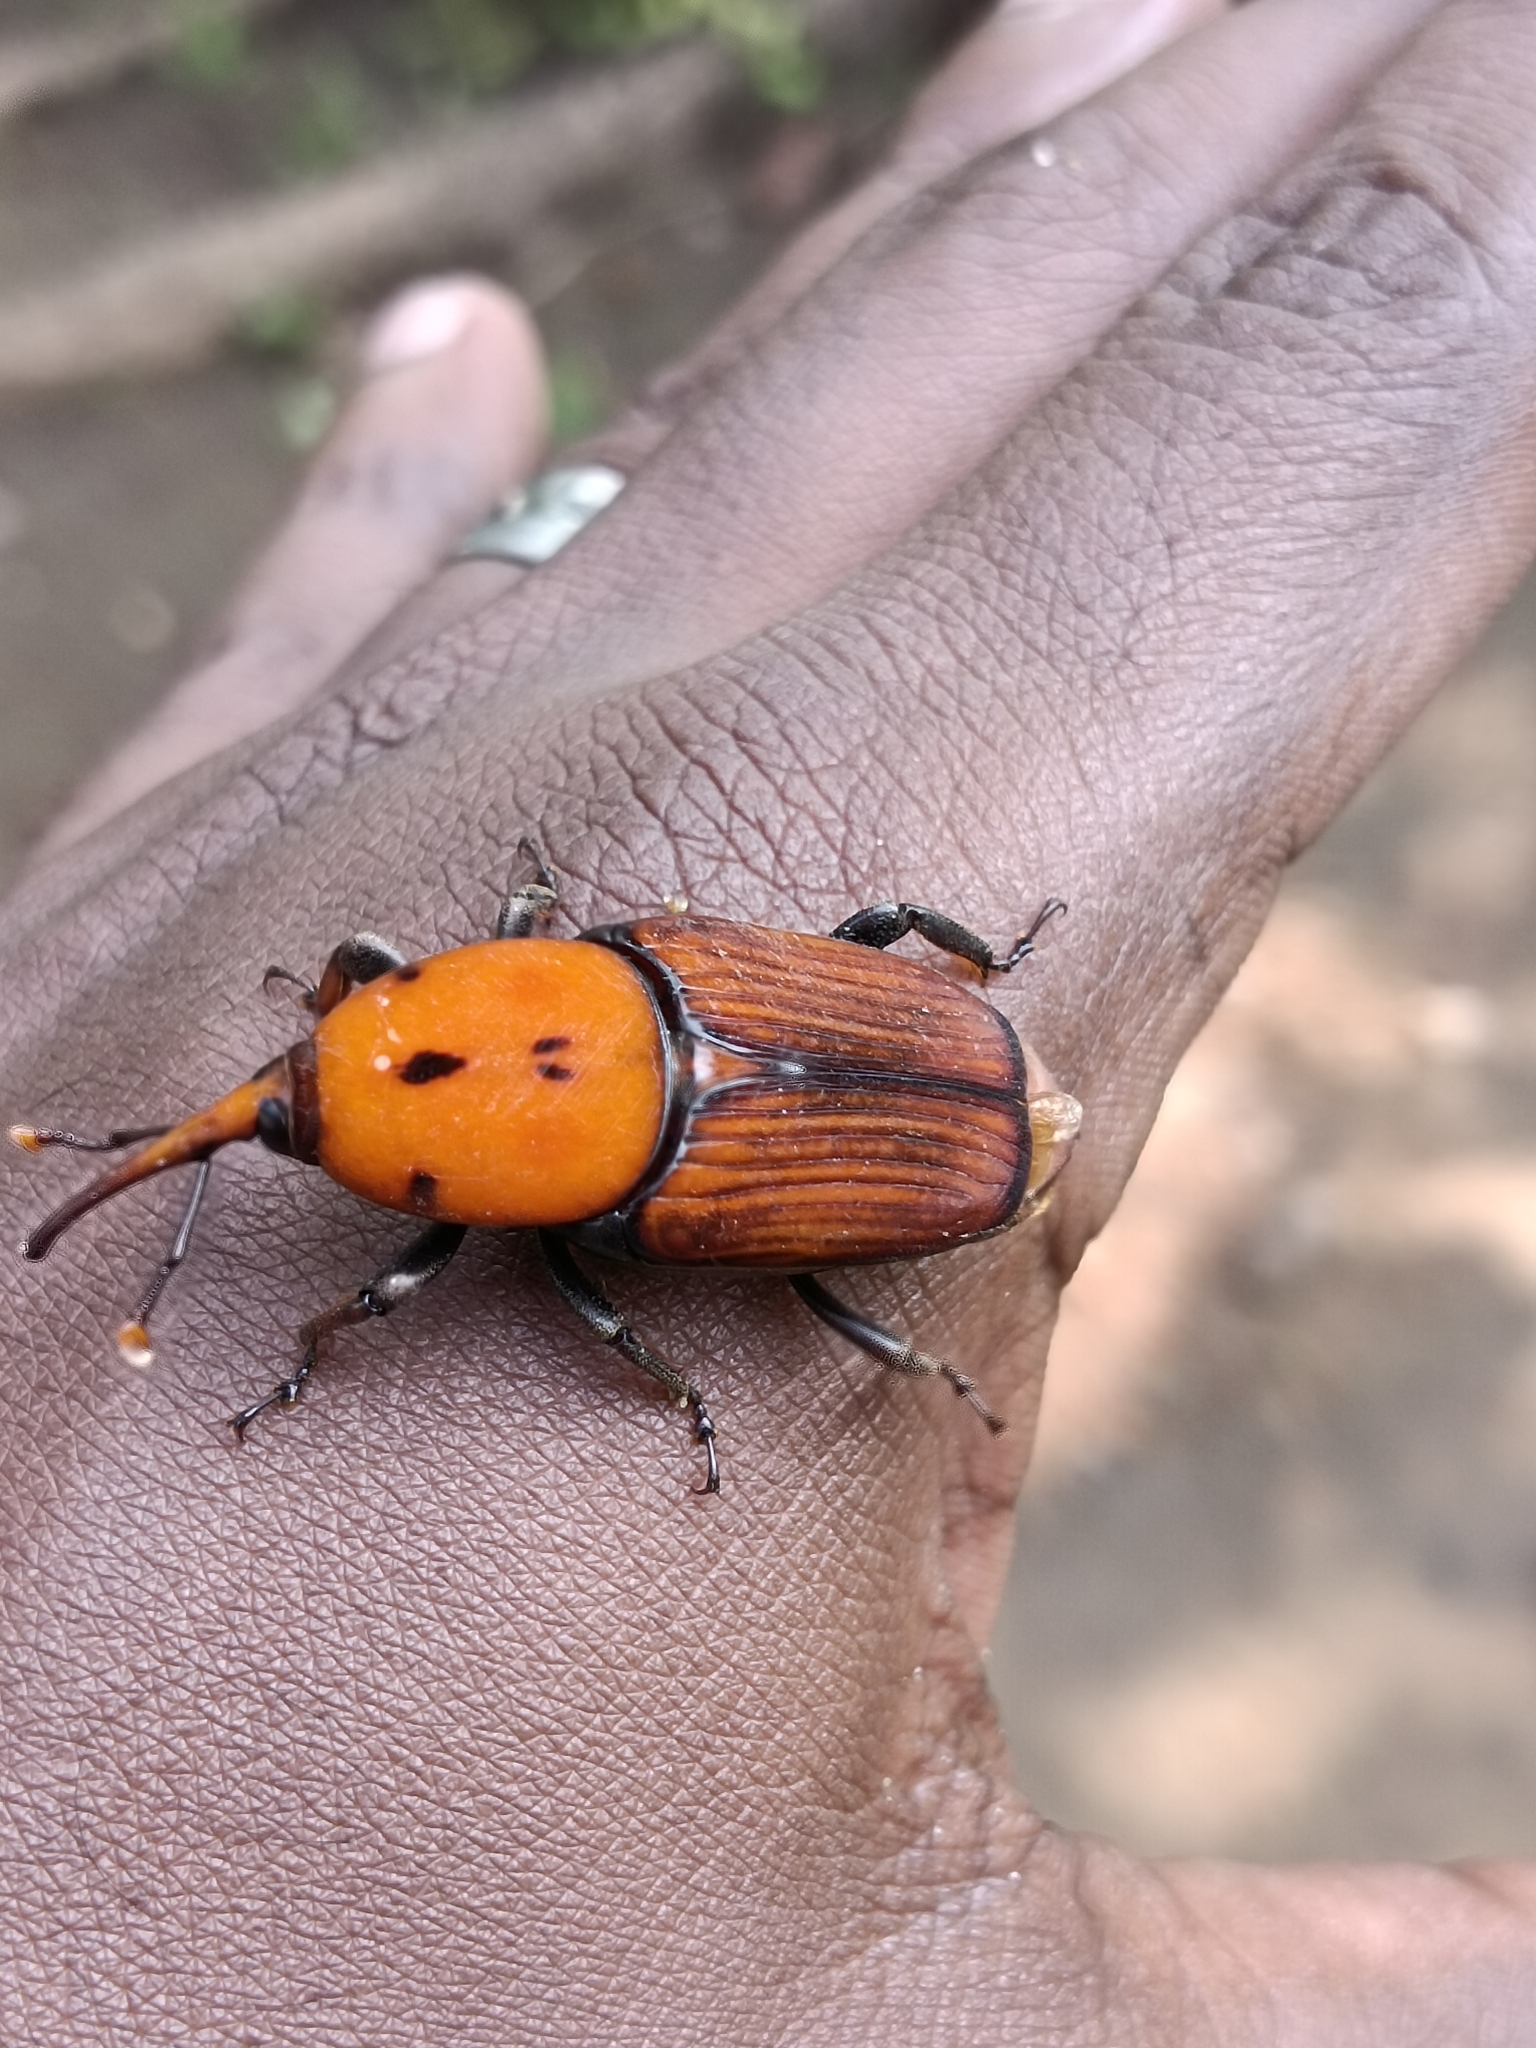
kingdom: Animalia
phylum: Arthropoda
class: Insecta
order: Coleoptera
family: Dryophthoridae
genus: Rhynchophorus
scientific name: Rhynchophorus ferrugineus
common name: Red palm weevil
